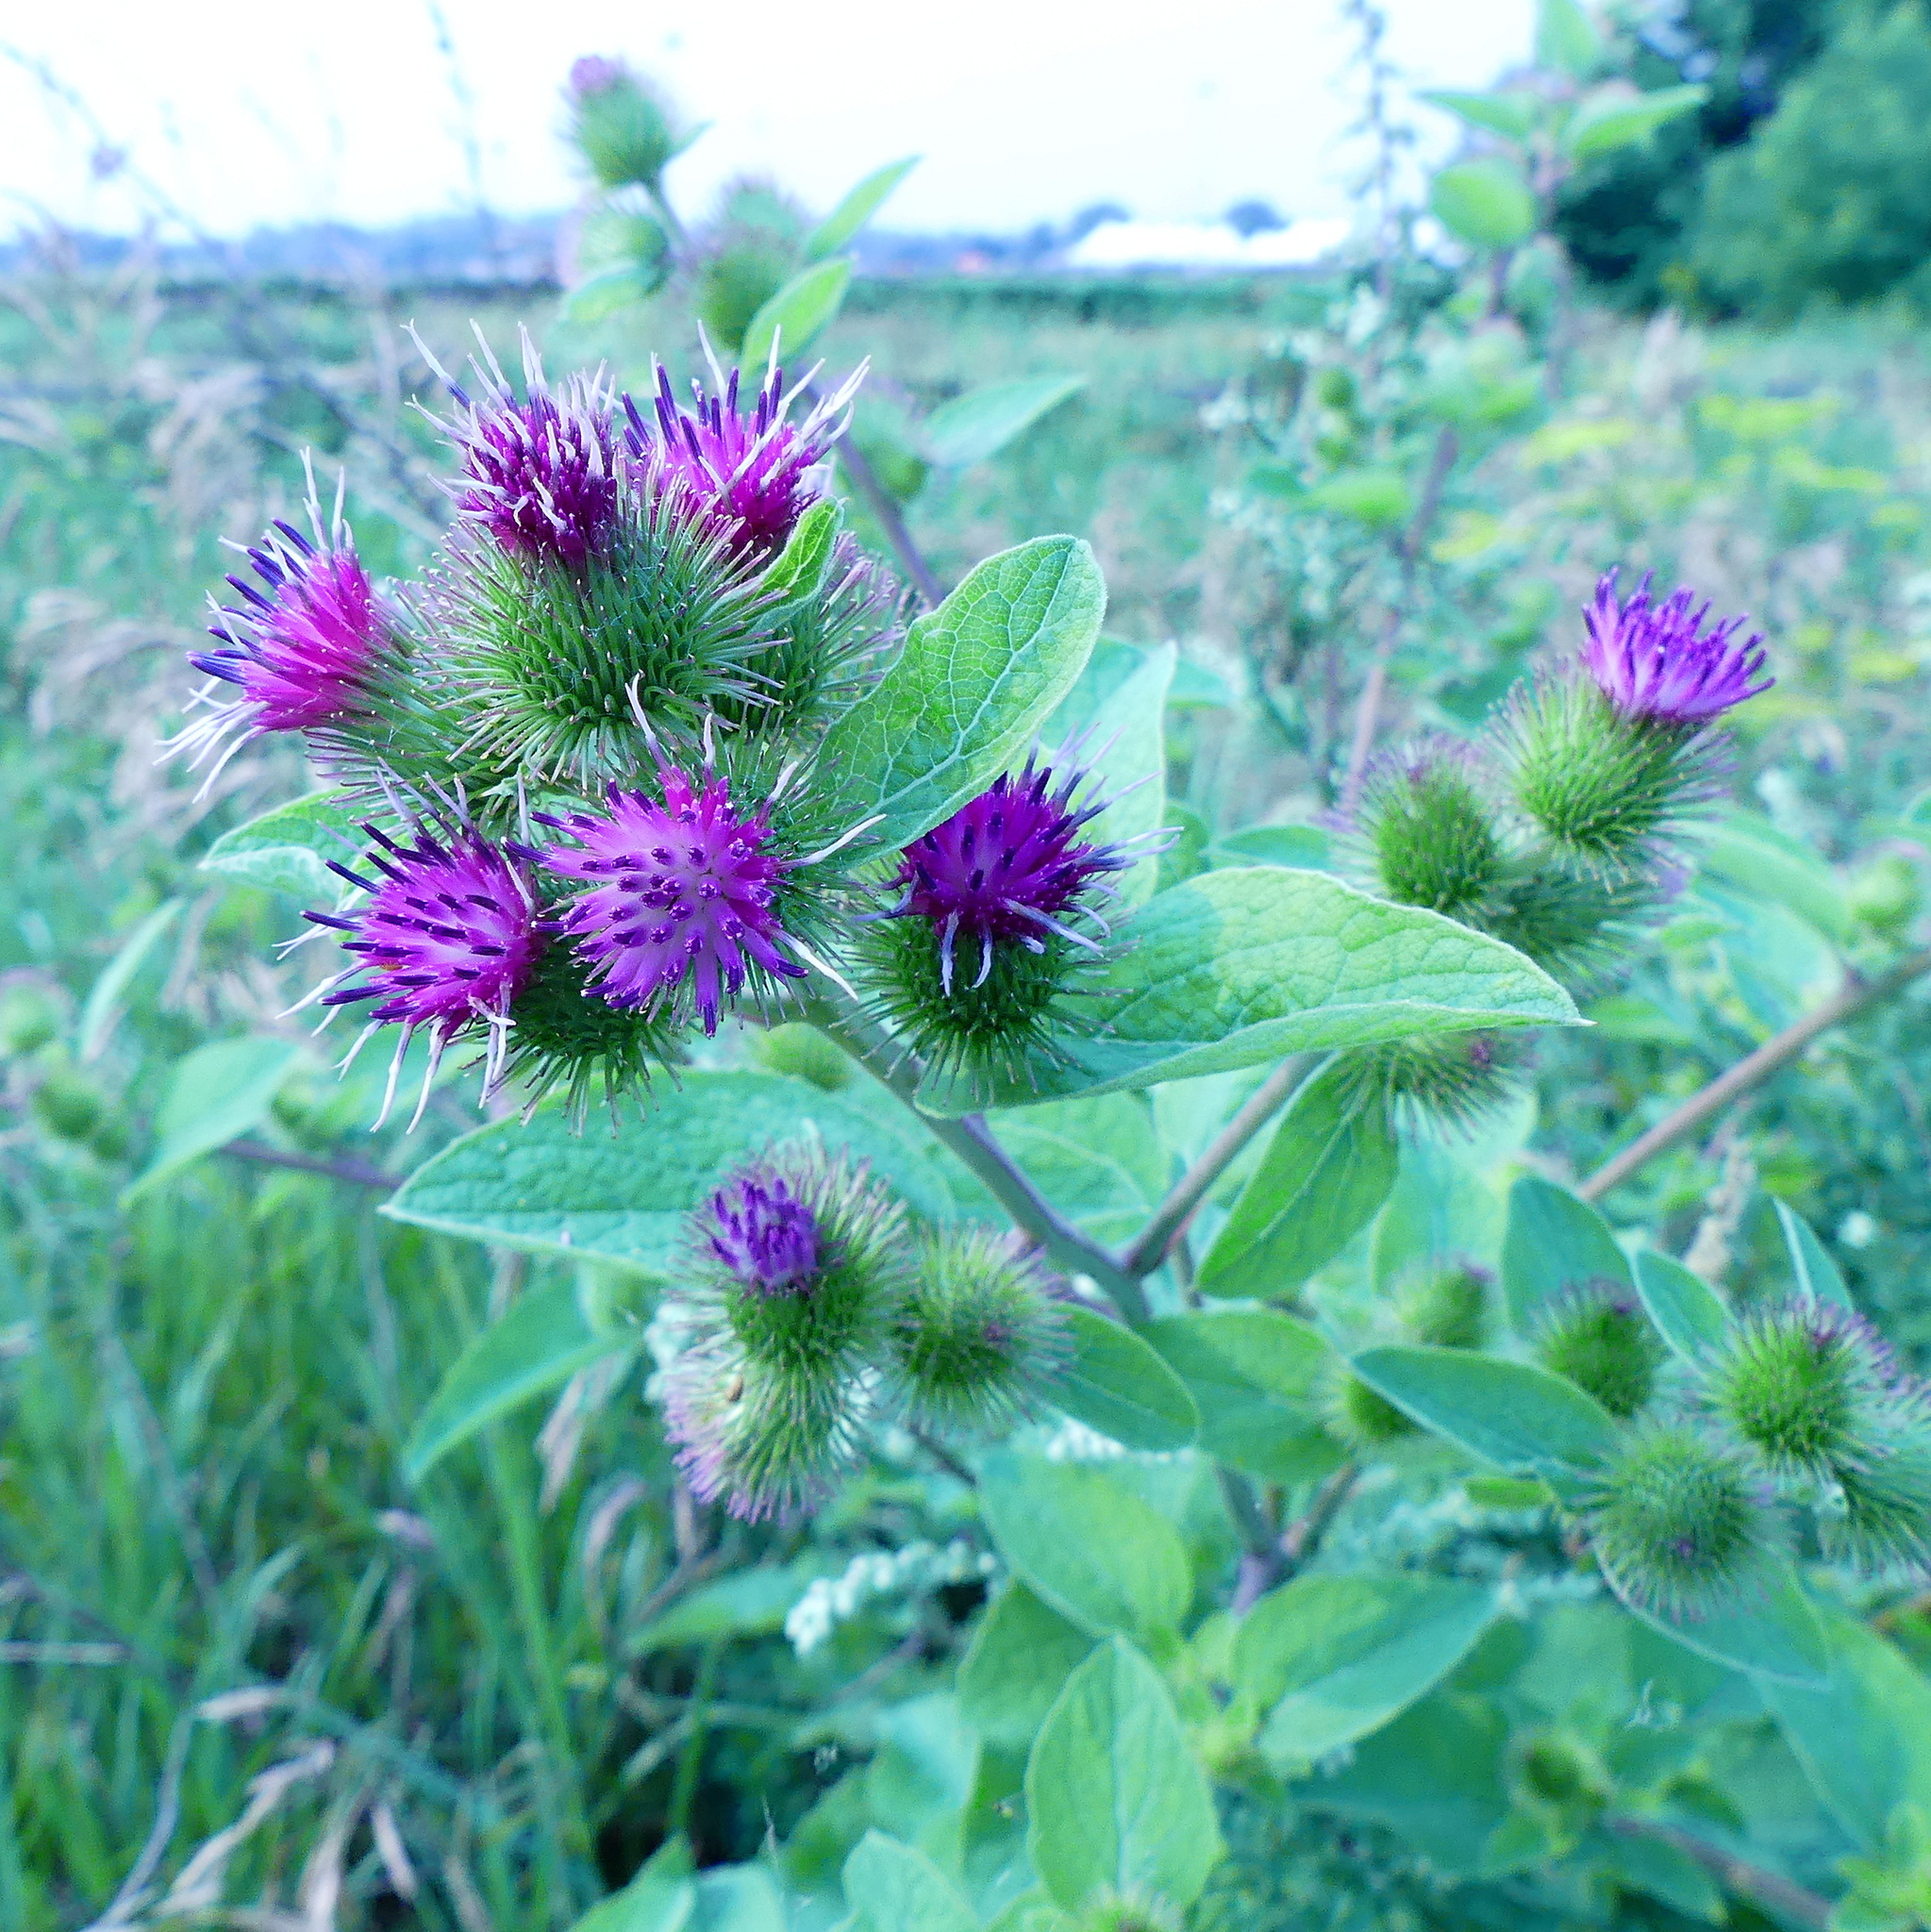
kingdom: Plantae
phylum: Tracheophyta
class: Magnoliopsida
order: Asterales
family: Asteraceae
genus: Arctium
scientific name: Arctium minus
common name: Lesser burdock
